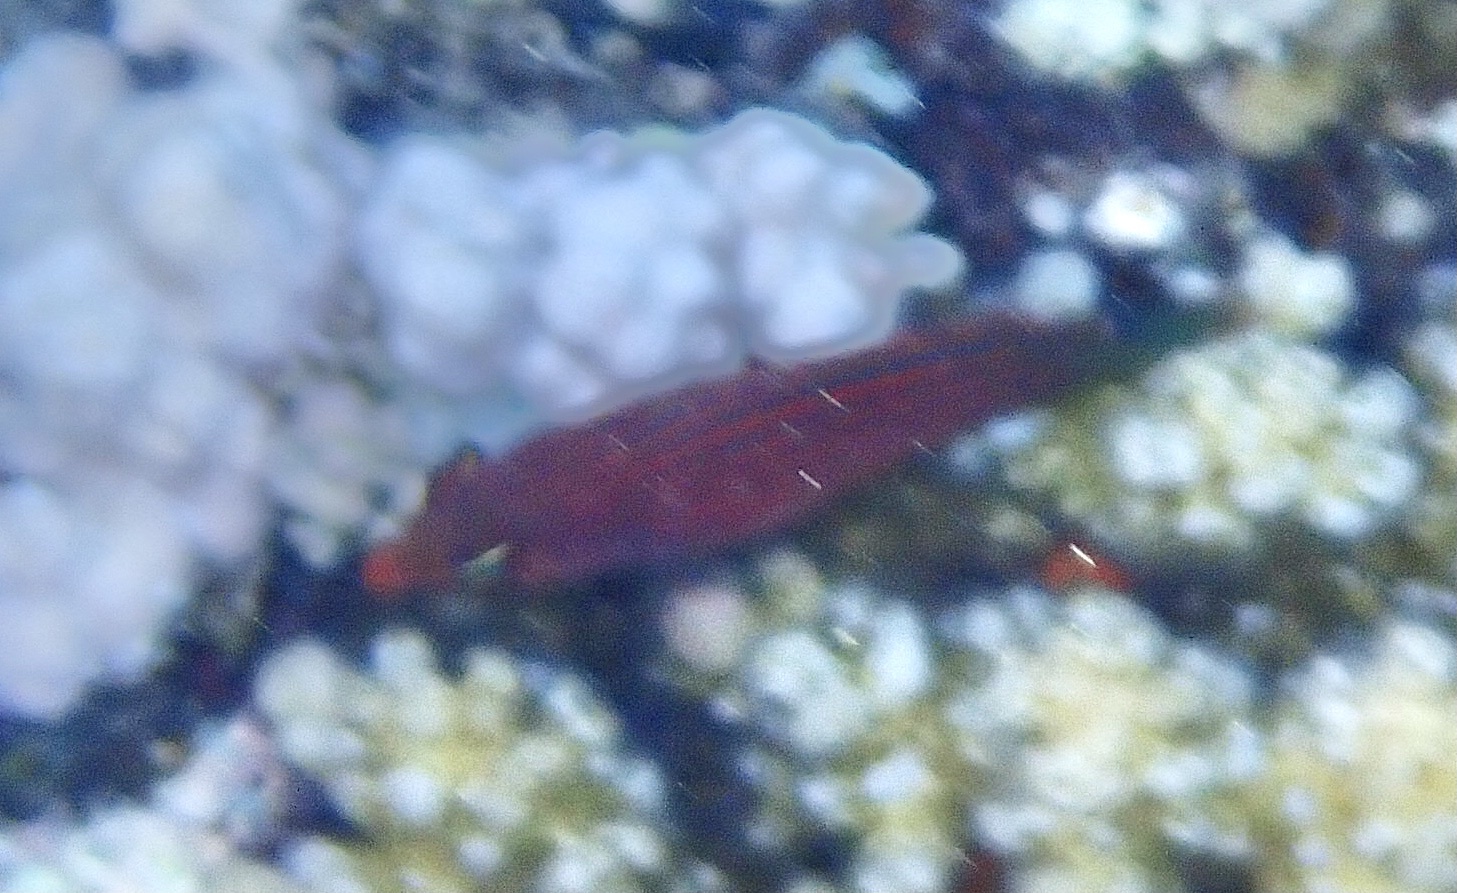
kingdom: Animalia
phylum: Chordata
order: Perciformes
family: Labridae
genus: Pseudocheilinus
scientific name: Pseudocheilinus hexataenia
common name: Sixline wrasse
